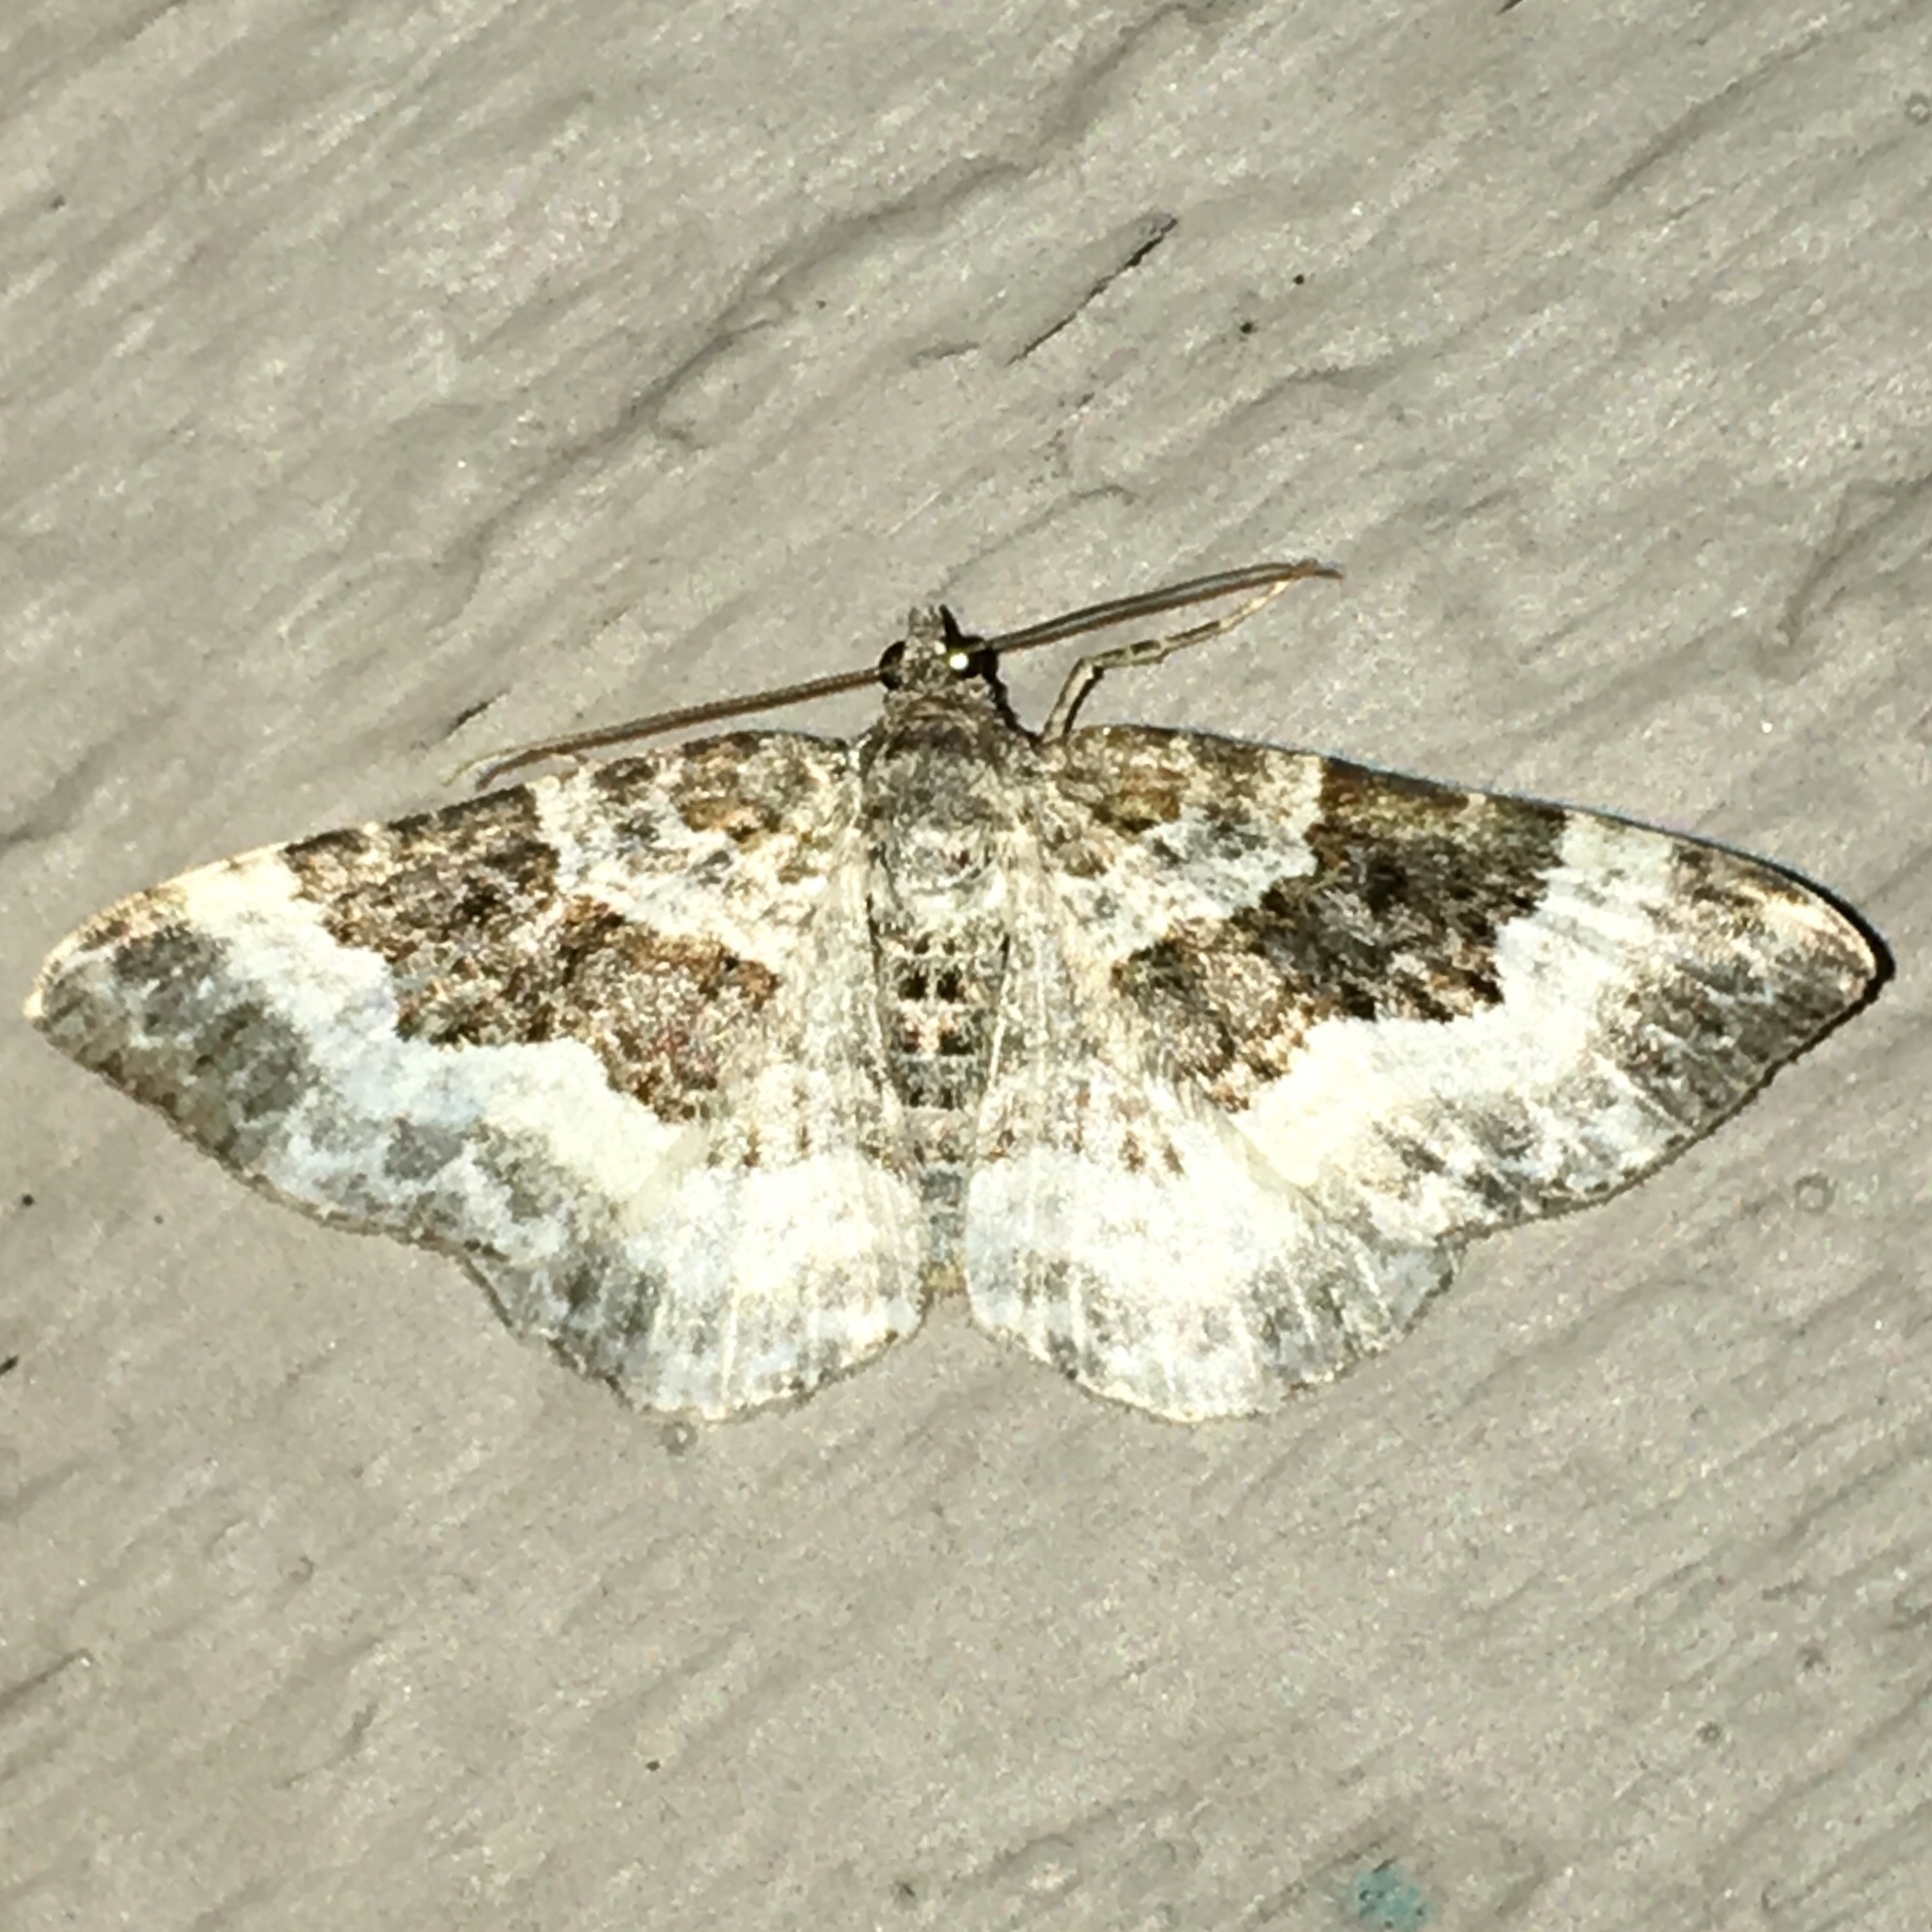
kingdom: Animalia
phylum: Arthropoda
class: Insecta
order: Lepidoptera
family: Geometridae
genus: Epirrhoe
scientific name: Epirrhoe alternata
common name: Common carpet
